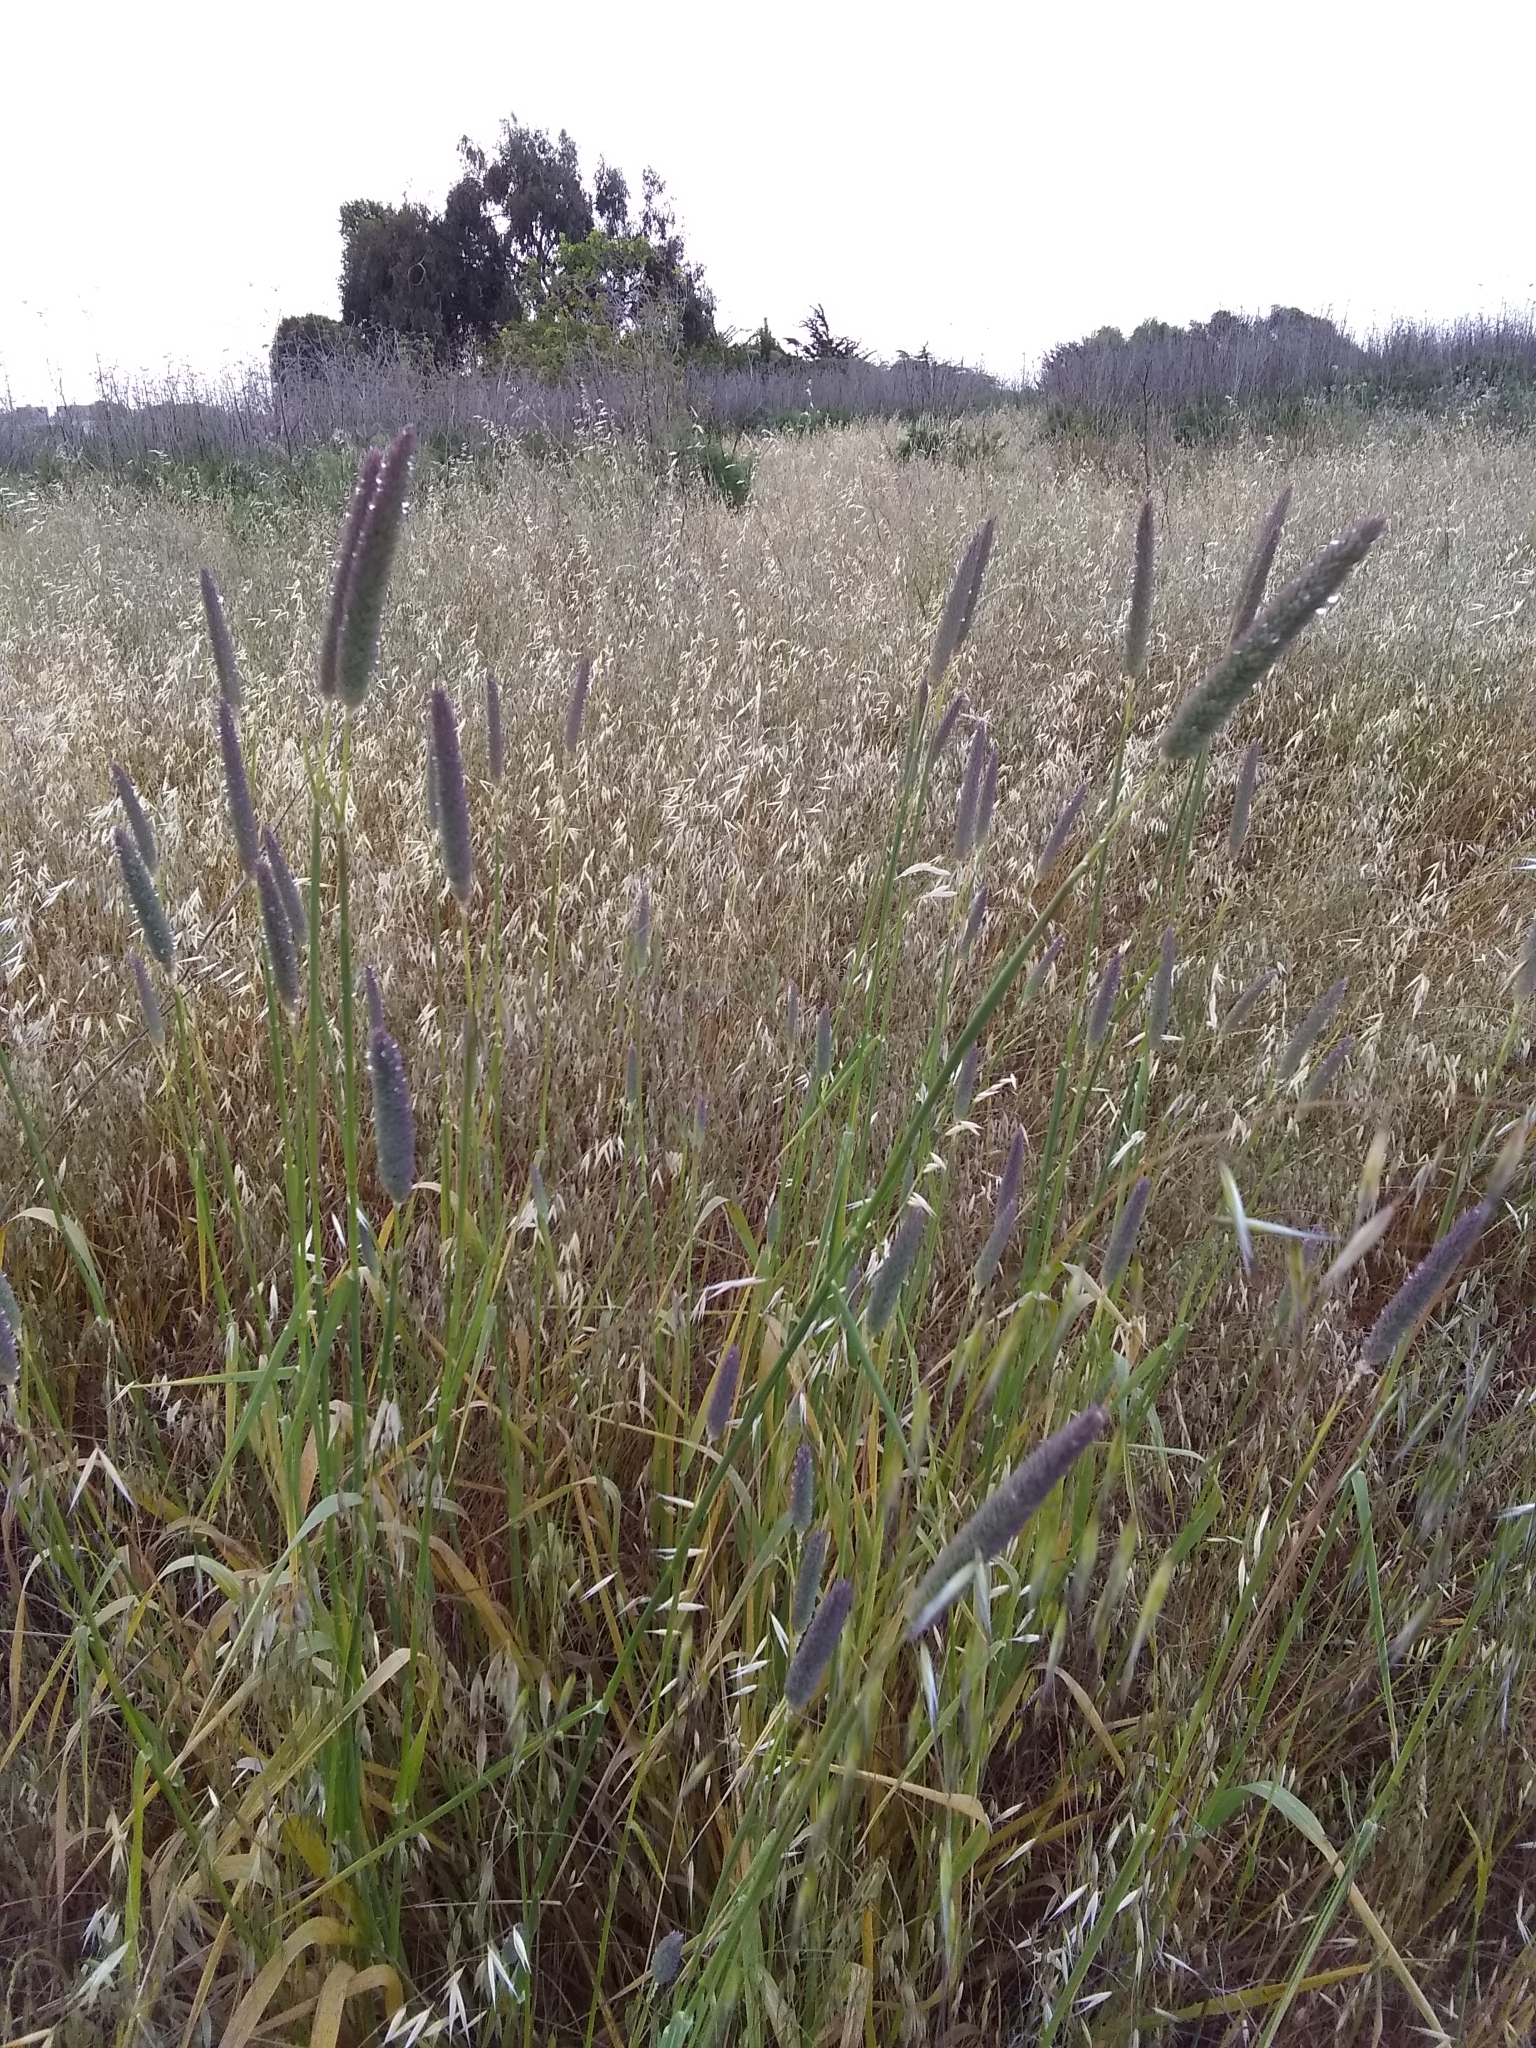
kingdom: Plantae
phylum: Tracheophyta
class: Liliopsida
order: Poales
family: Poaceae
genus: Phalaris
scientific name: Phalaris aquatica
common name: Bulbous canary-grass
